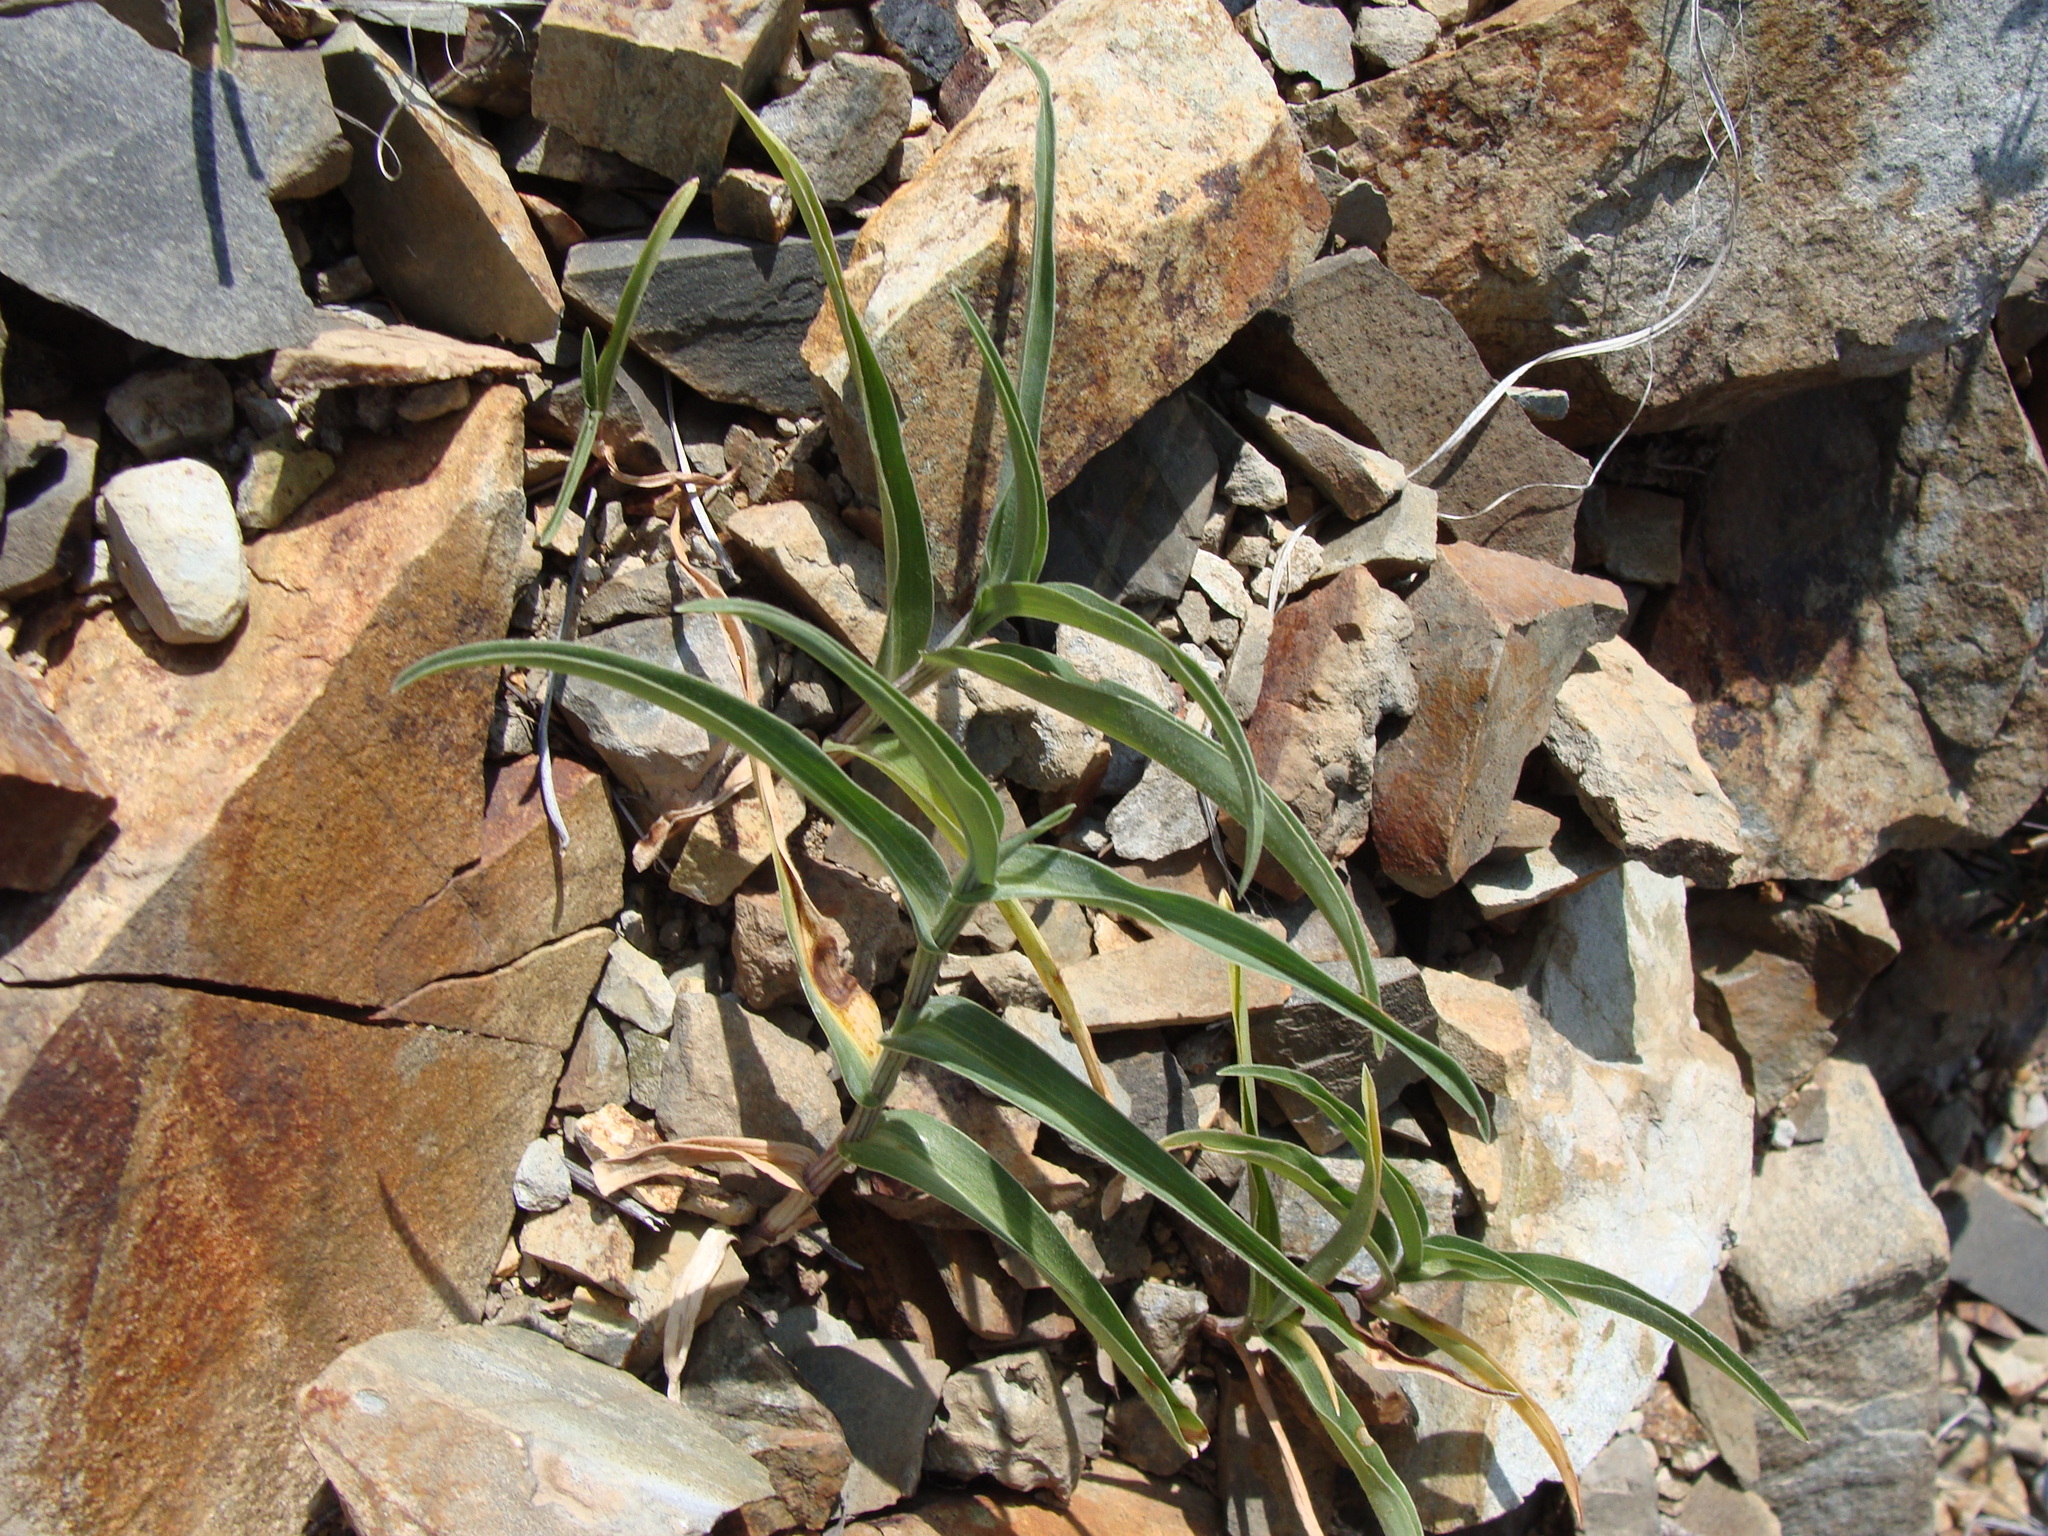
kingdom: Plantae
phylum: Tracheophyta
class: Liliopsida
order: Commelinales
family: Commelinaceae
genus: Commelina
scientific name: Commelina dianthifolia
